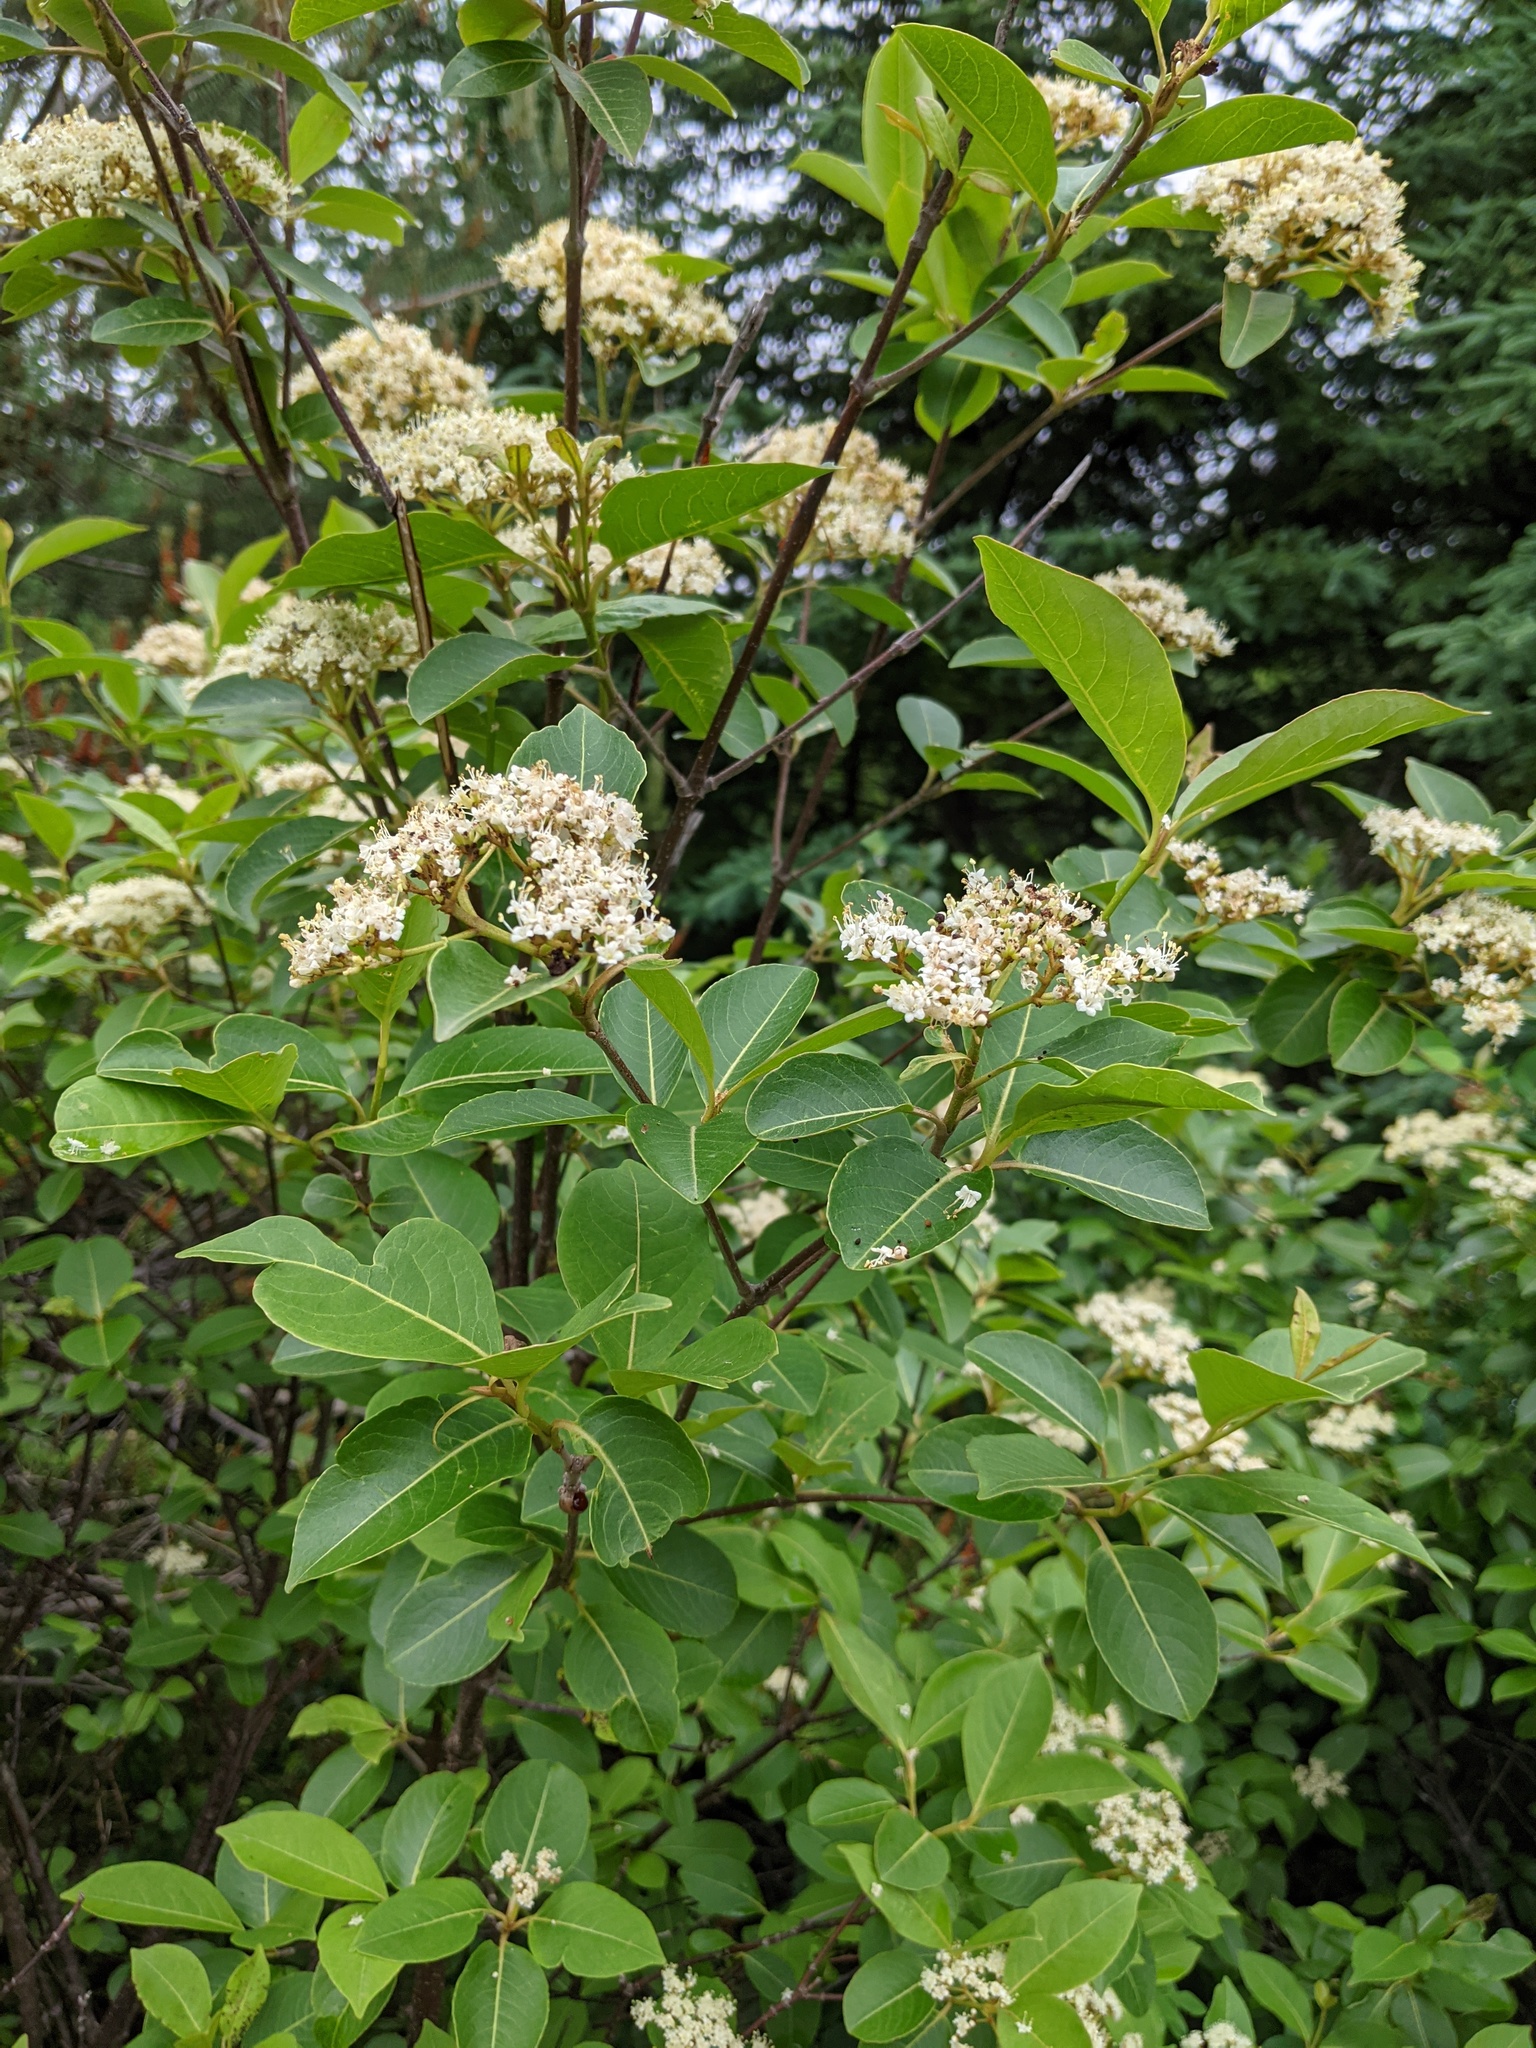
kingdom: Plantae
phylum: Tracheophyta
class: Magnoliopsida
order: Dipsacales
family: Viburnaceae
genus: Viburnum
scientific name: Viburnum cassinoides
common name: Swamp haw
